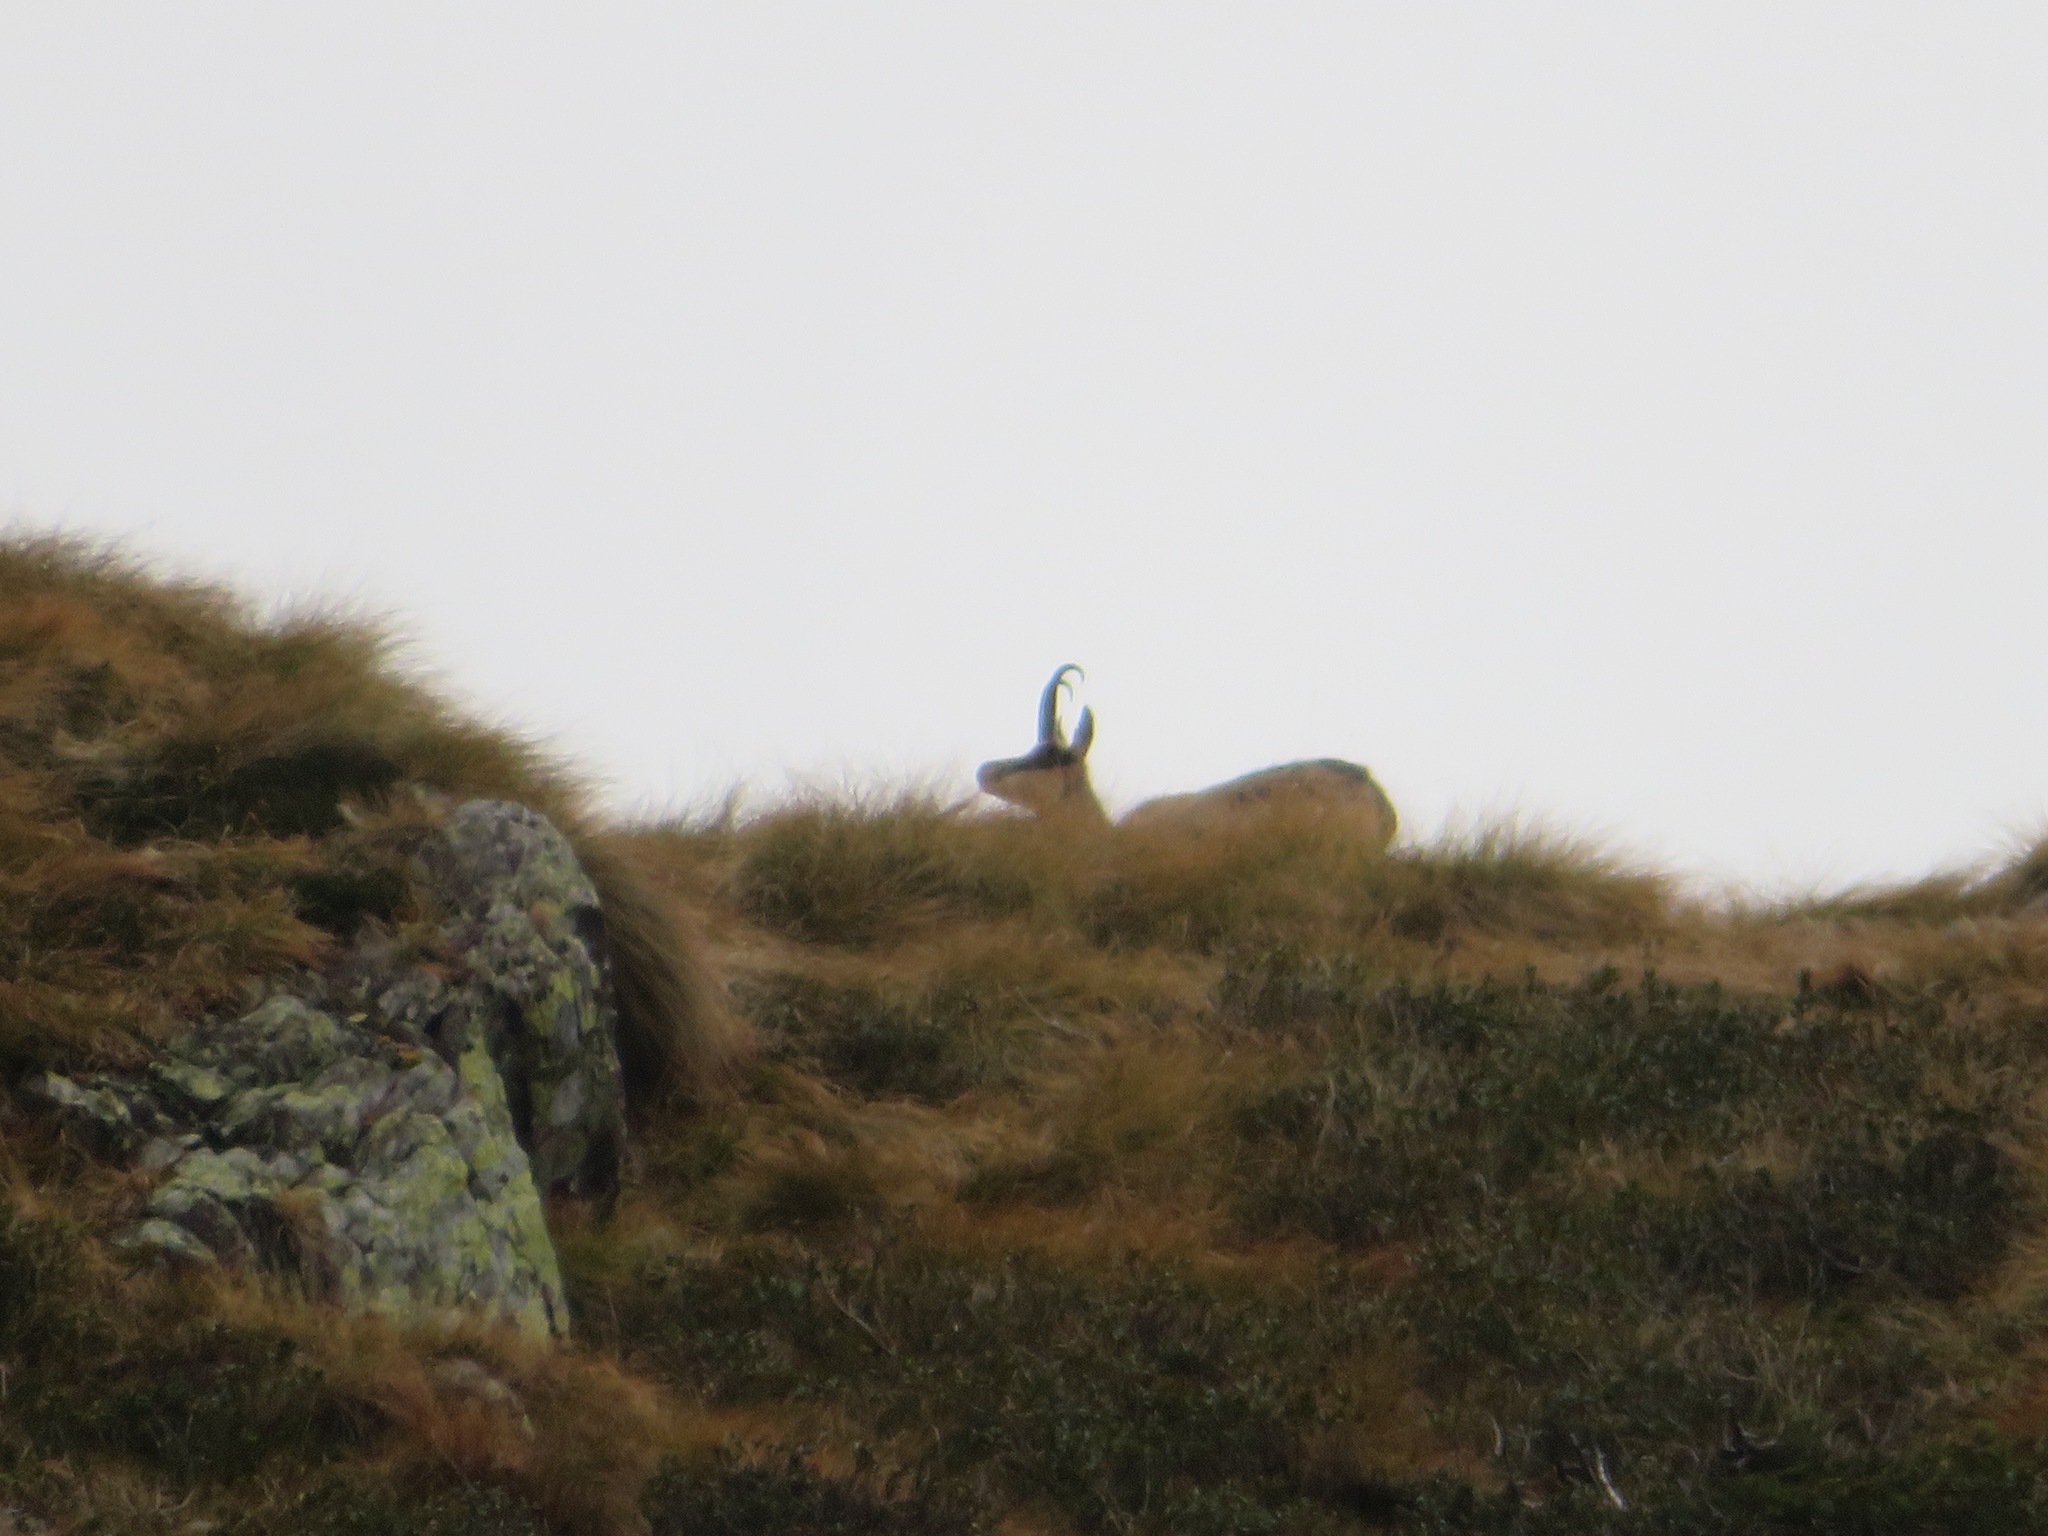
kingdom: Animalia
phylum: Chordata
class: Mammalia
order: Artiodactyla
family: Bovidae
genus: Rupicapra
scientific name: Rupicapra rupicapra
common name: Chamois
